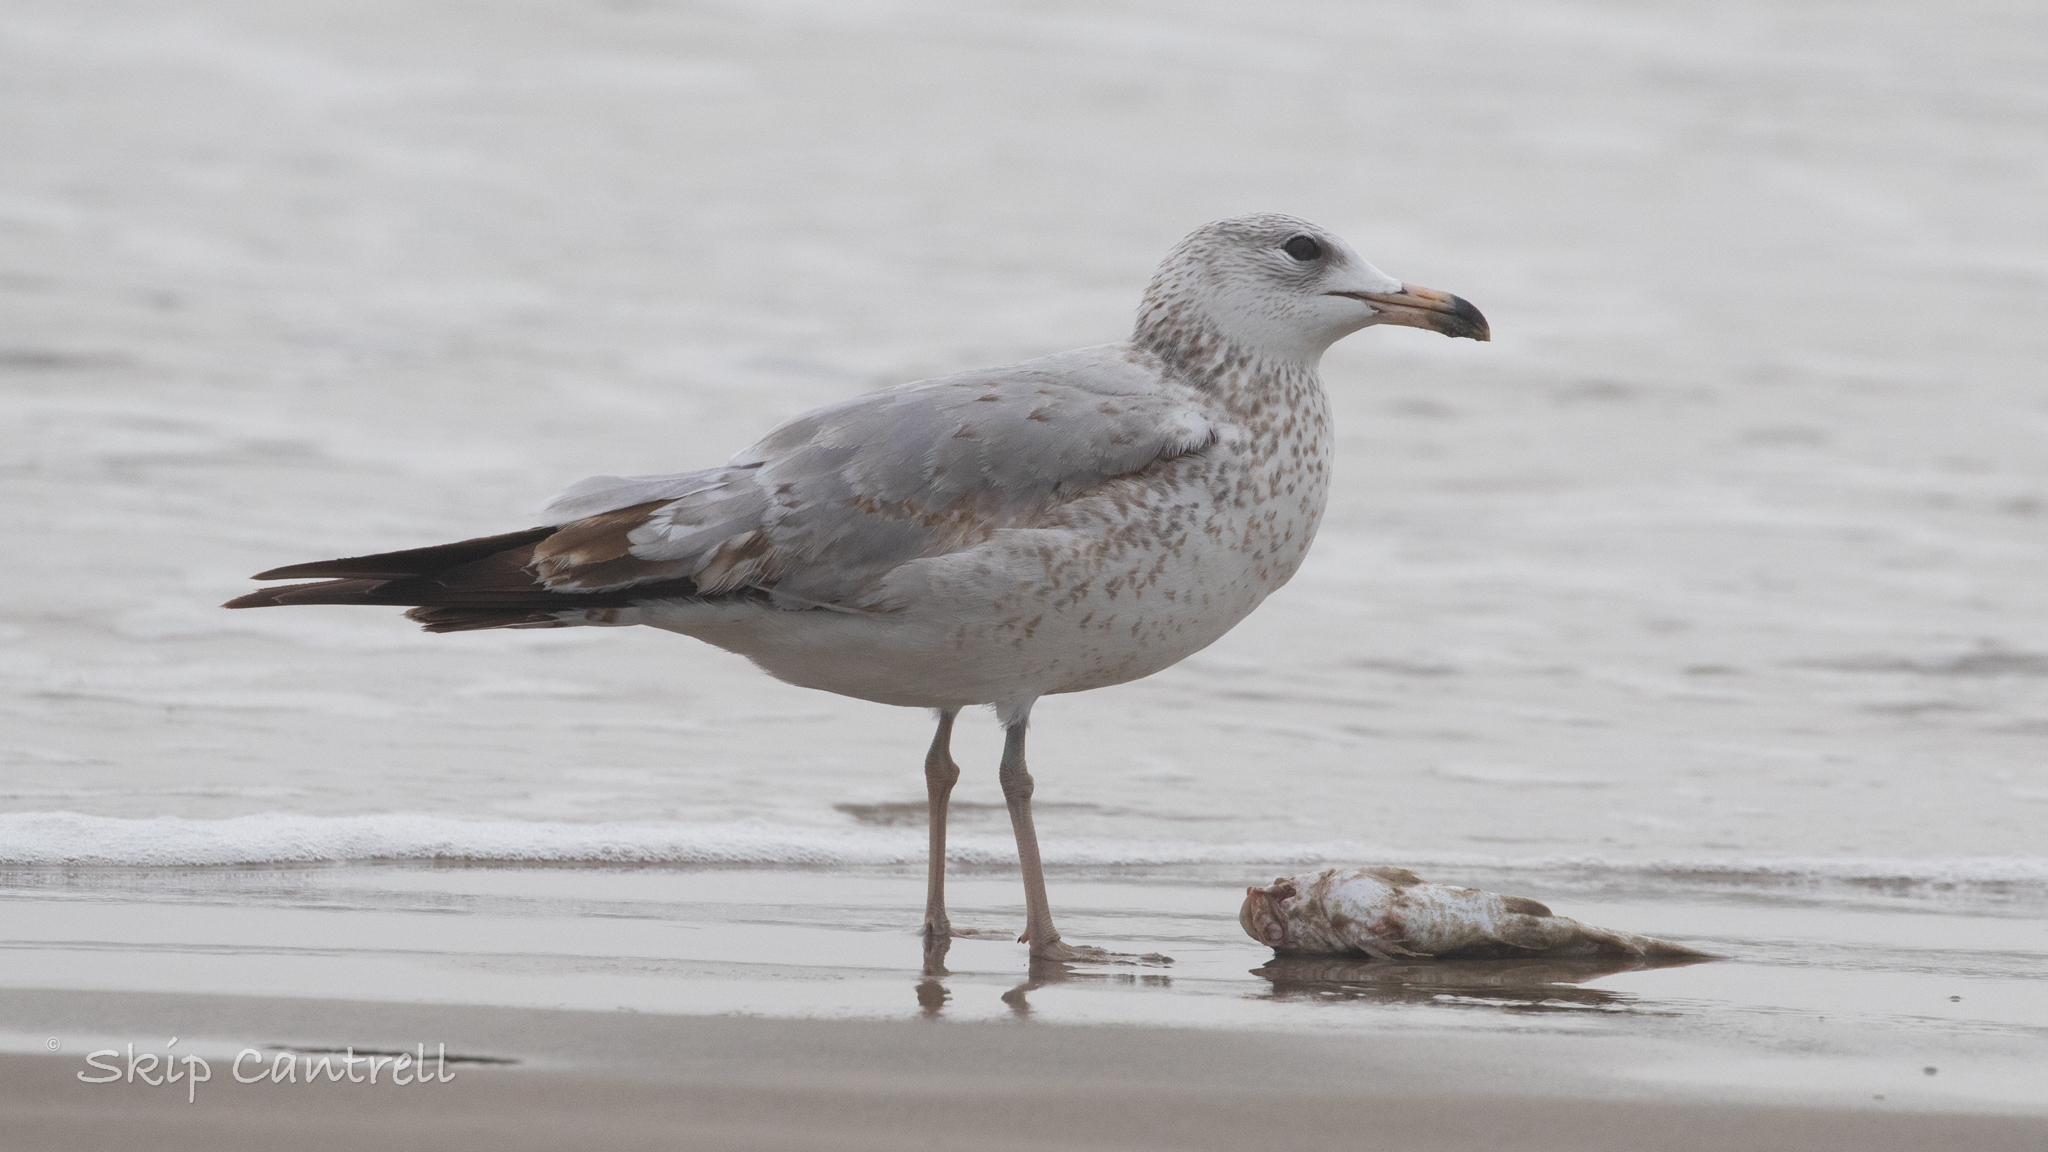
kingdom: Animalia
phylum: Chordata
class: Aves
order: Charadriiformes
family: Laridae
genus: Larus
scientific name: Larus delawarensis
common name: Ring-billed gull
